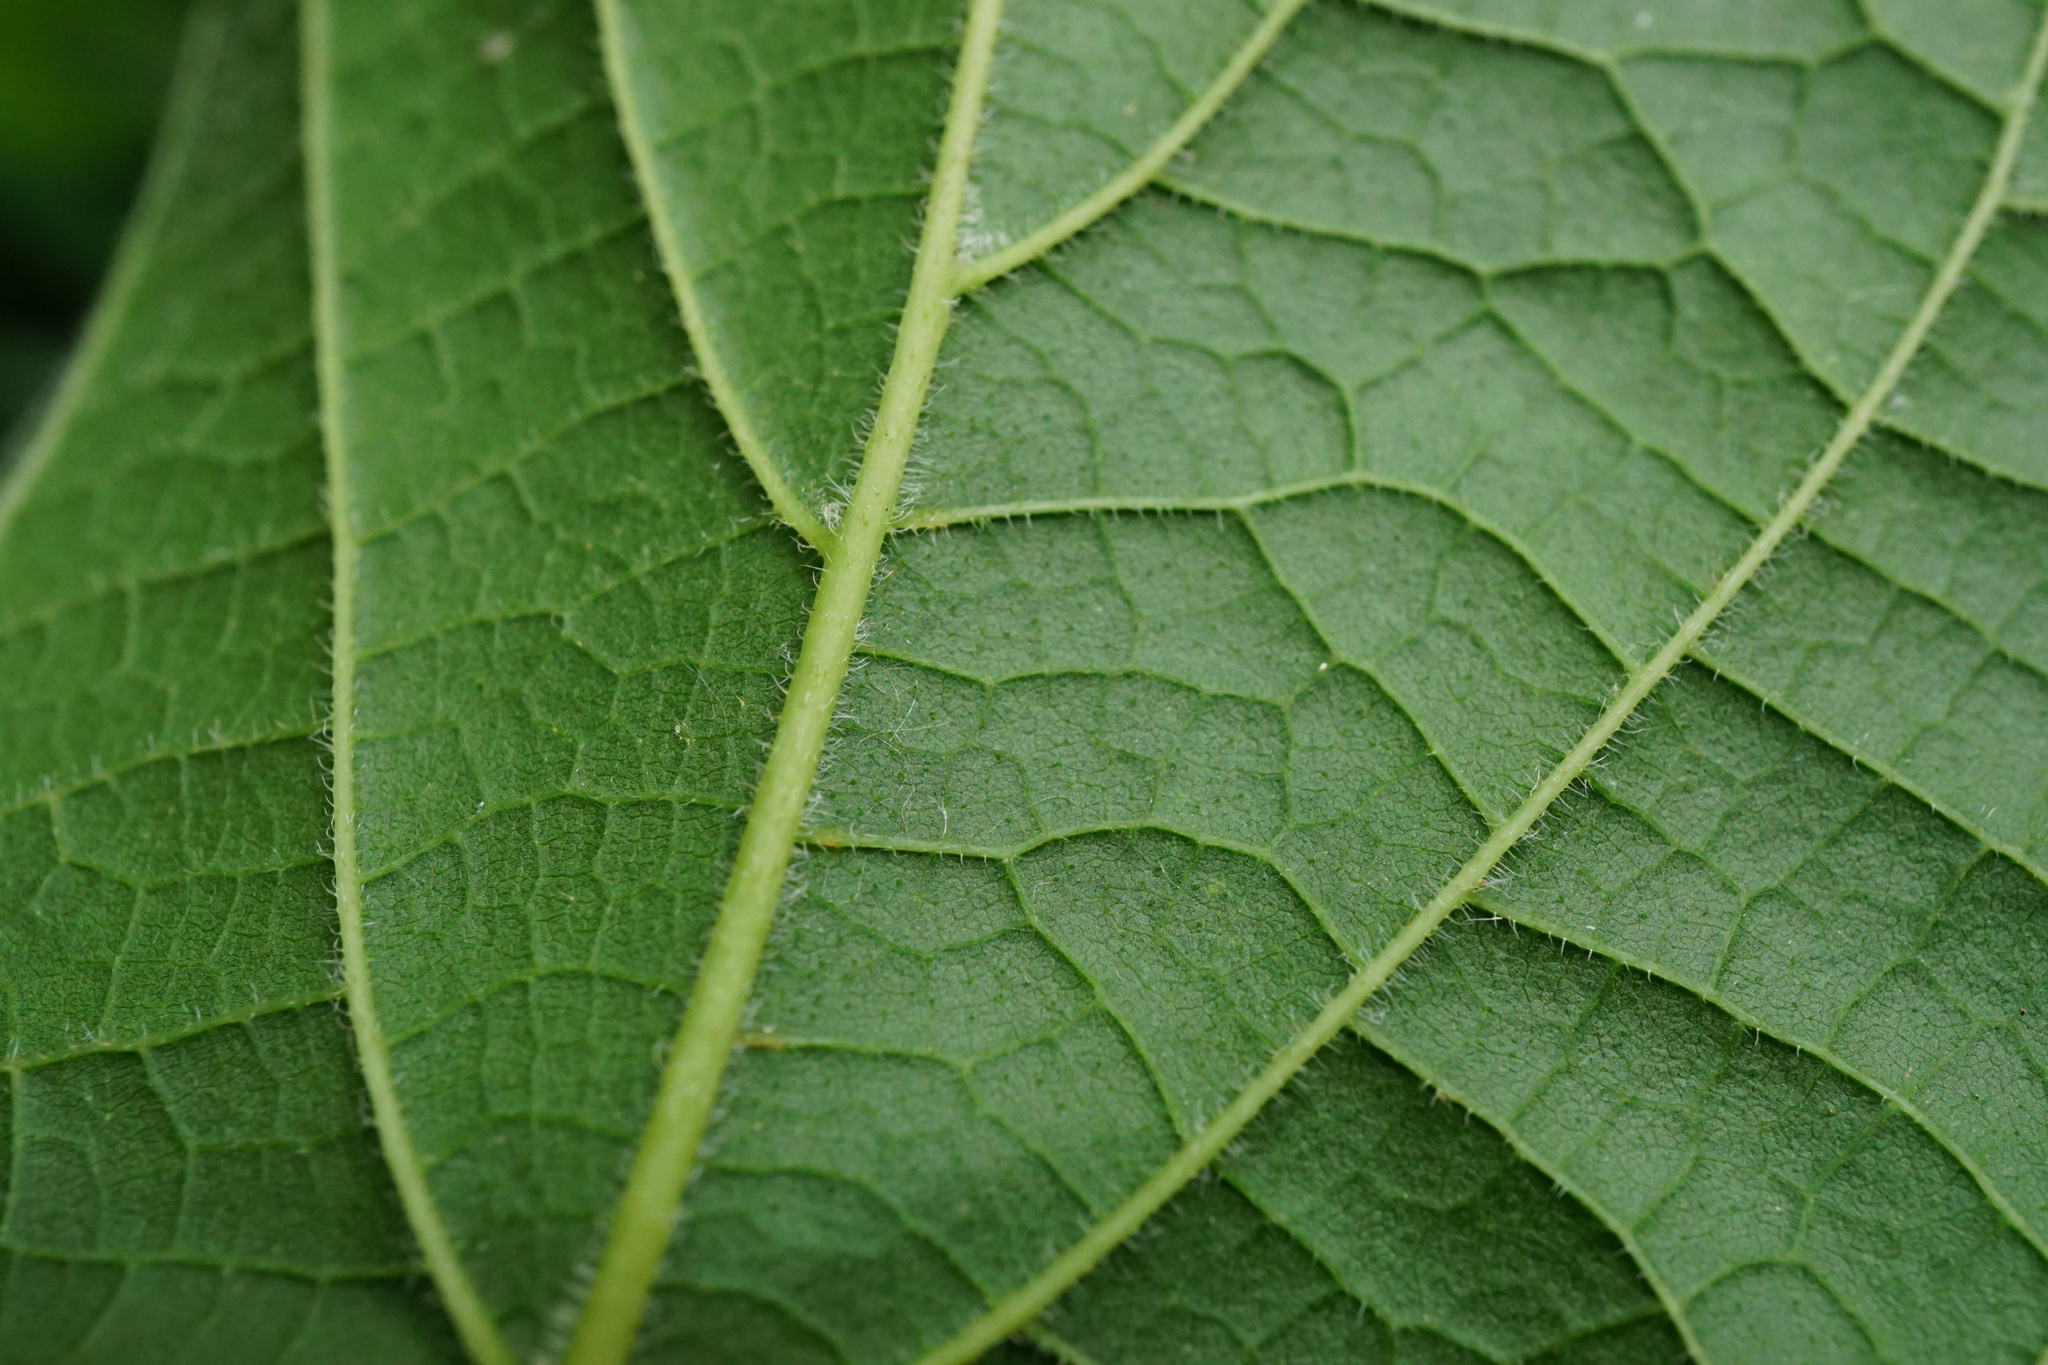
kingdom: Plantae
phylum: Tracheophyta
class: Magnoliopsida
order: Rosales
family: Cannabaceae
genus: Celtis
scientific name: Celtis australis
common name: European hackberry
